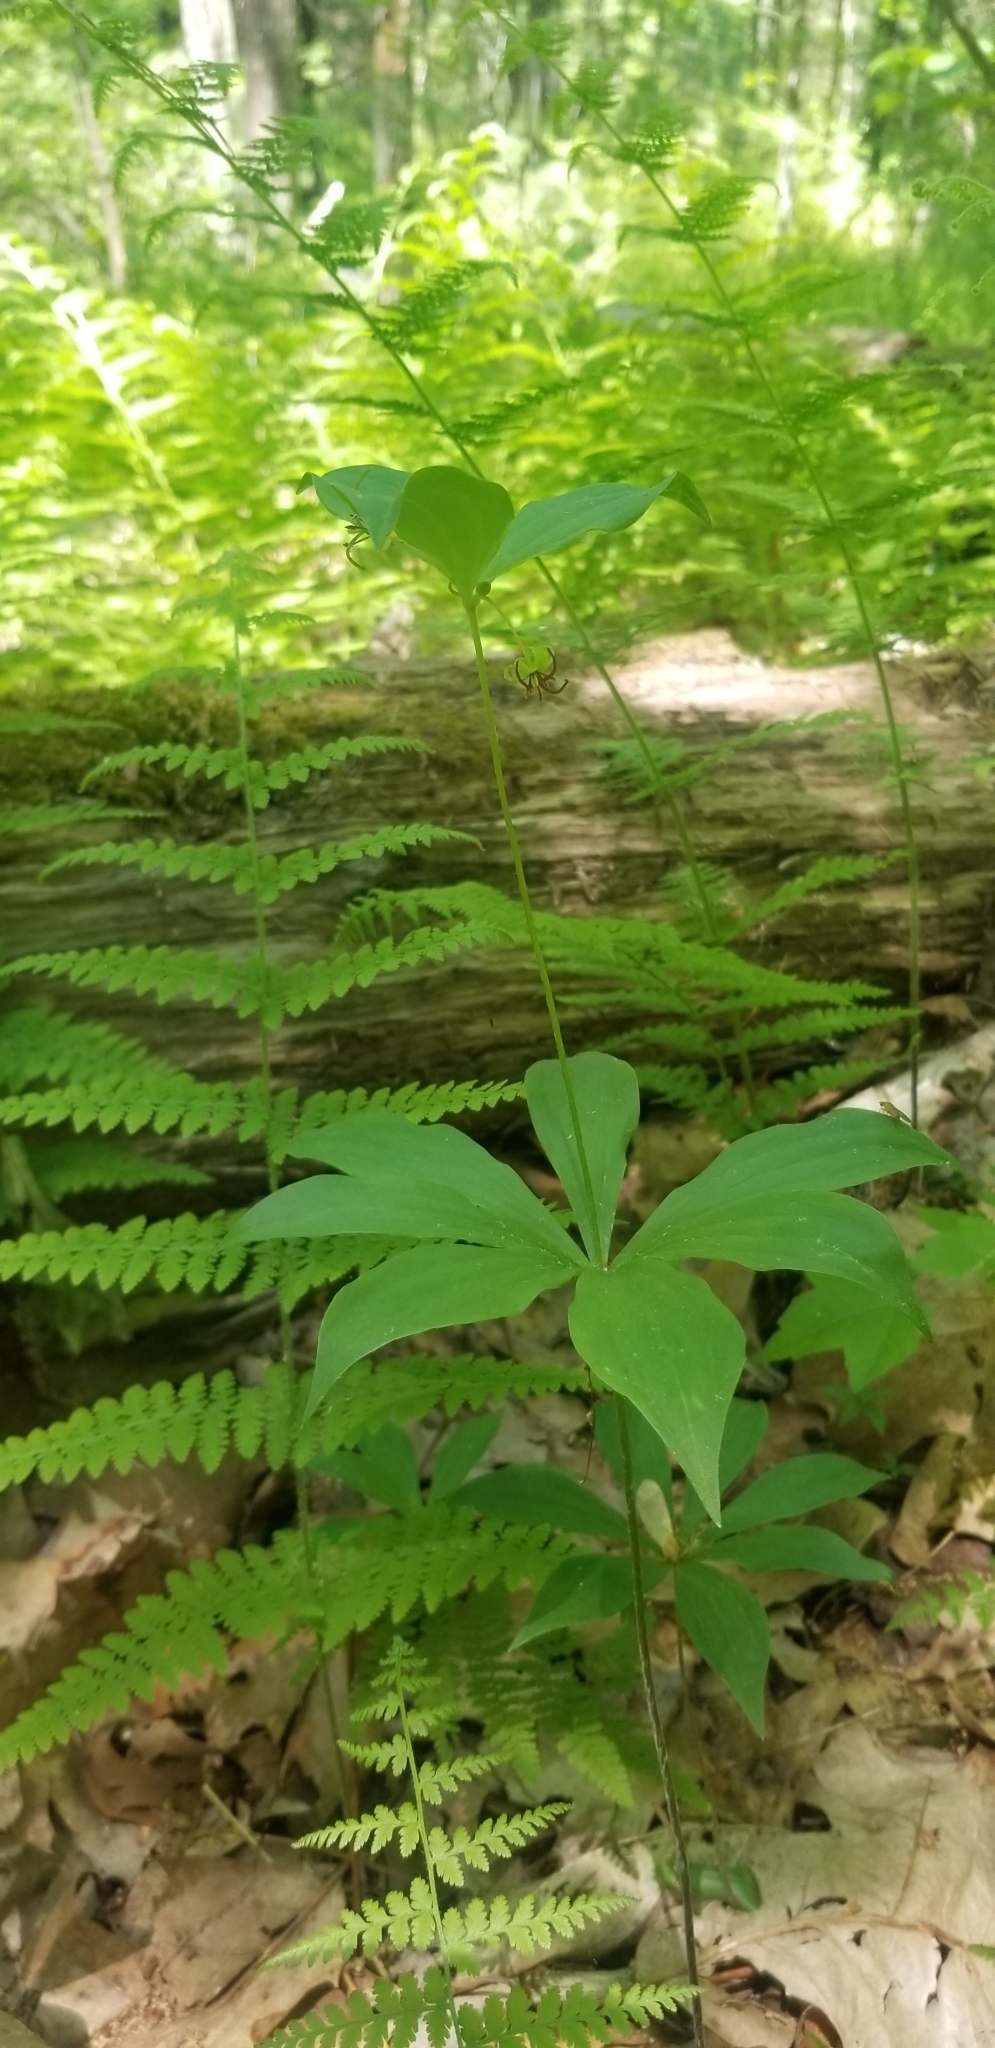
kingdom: Plantae
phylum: Tracheophyta
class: Liliopsida
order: Liliales
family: Liliaceae
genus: Medeola
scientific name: Medeola virginiana
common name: Indian cucumber-root
